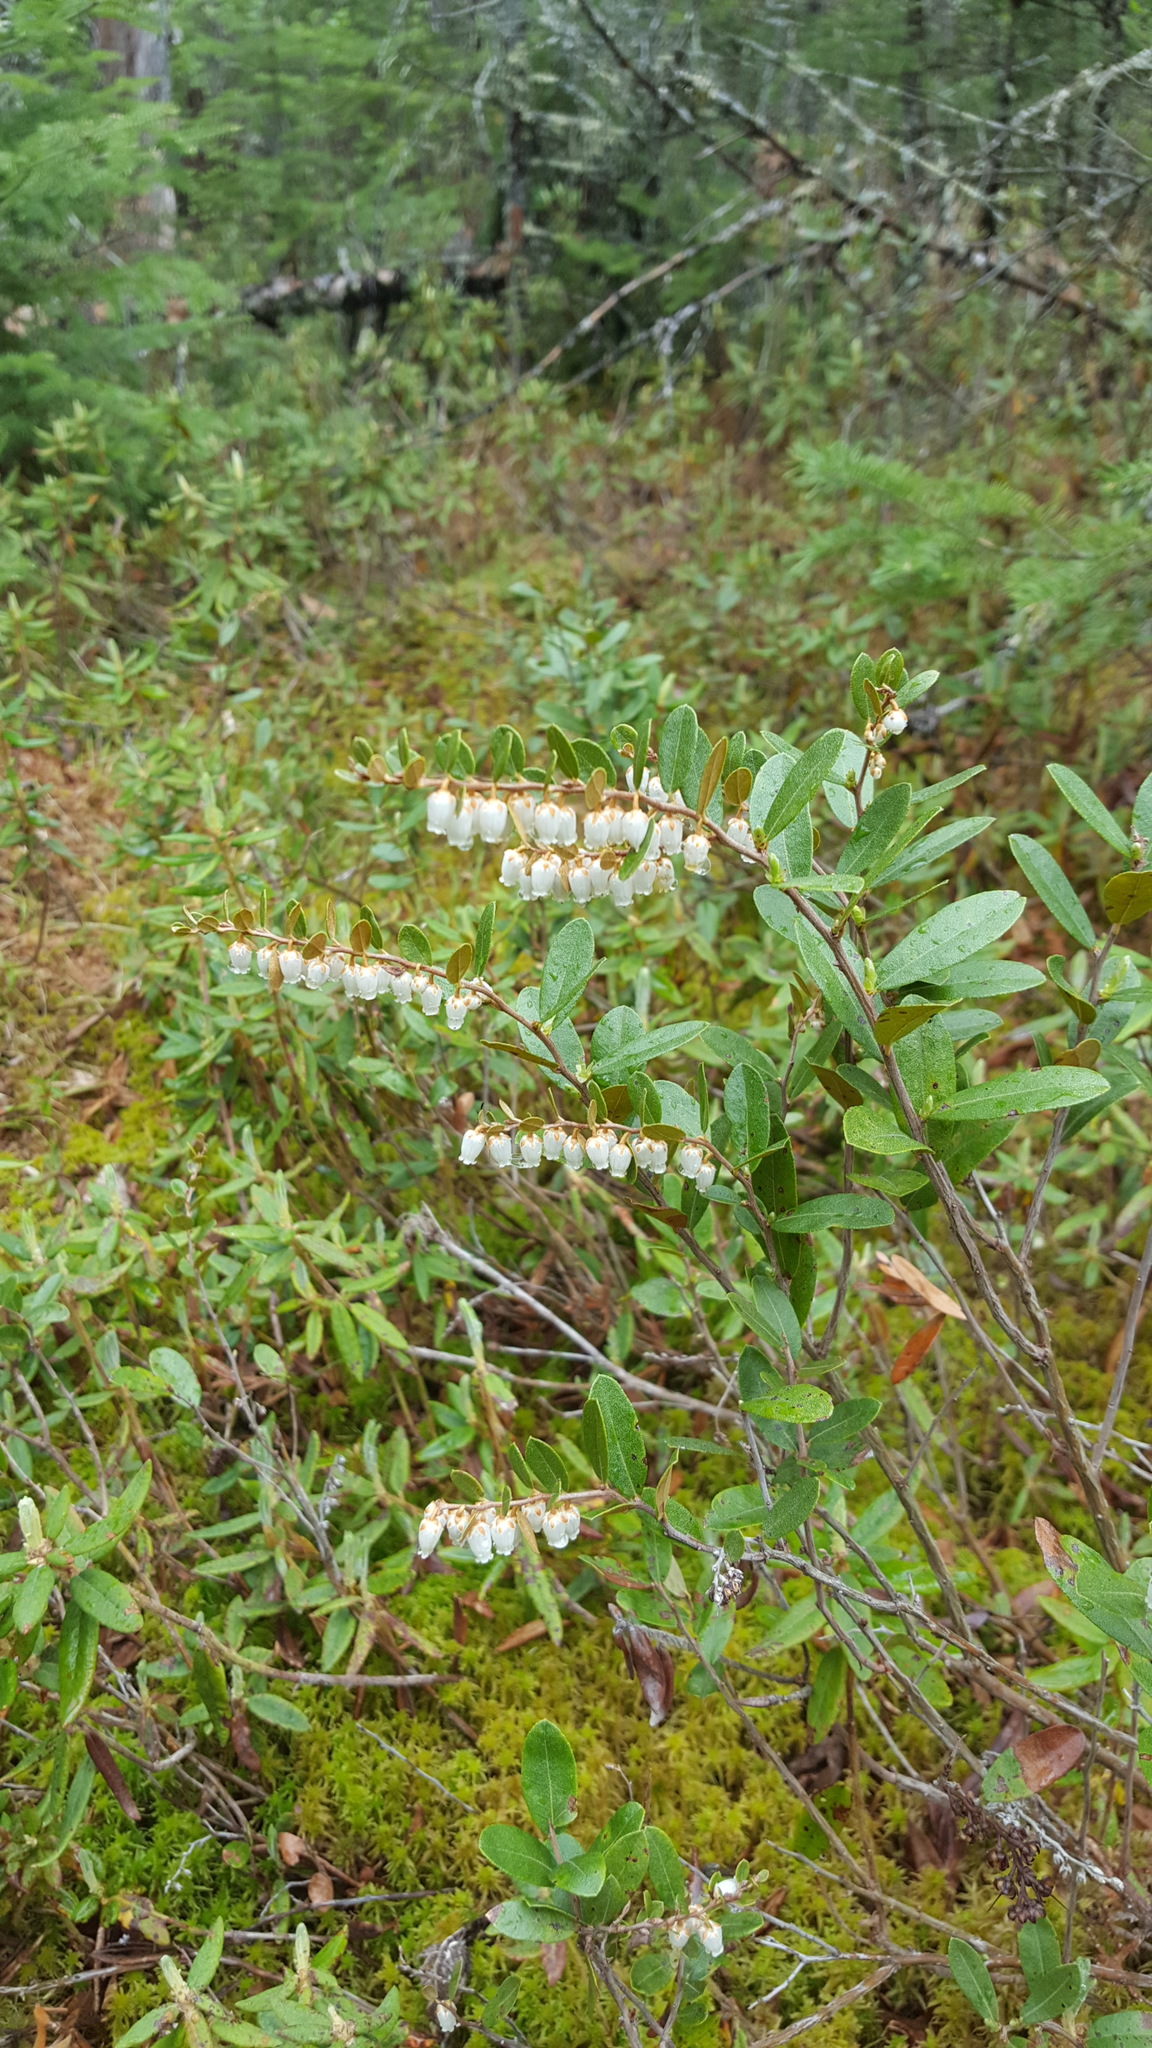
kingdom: Plantae
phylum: Tracheophyta
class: Magnoliopsida
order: Ericales
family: Ericaceae
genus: Chamaedaphne
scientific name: Chamaedaphne calyculata
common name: Leatherleaf
